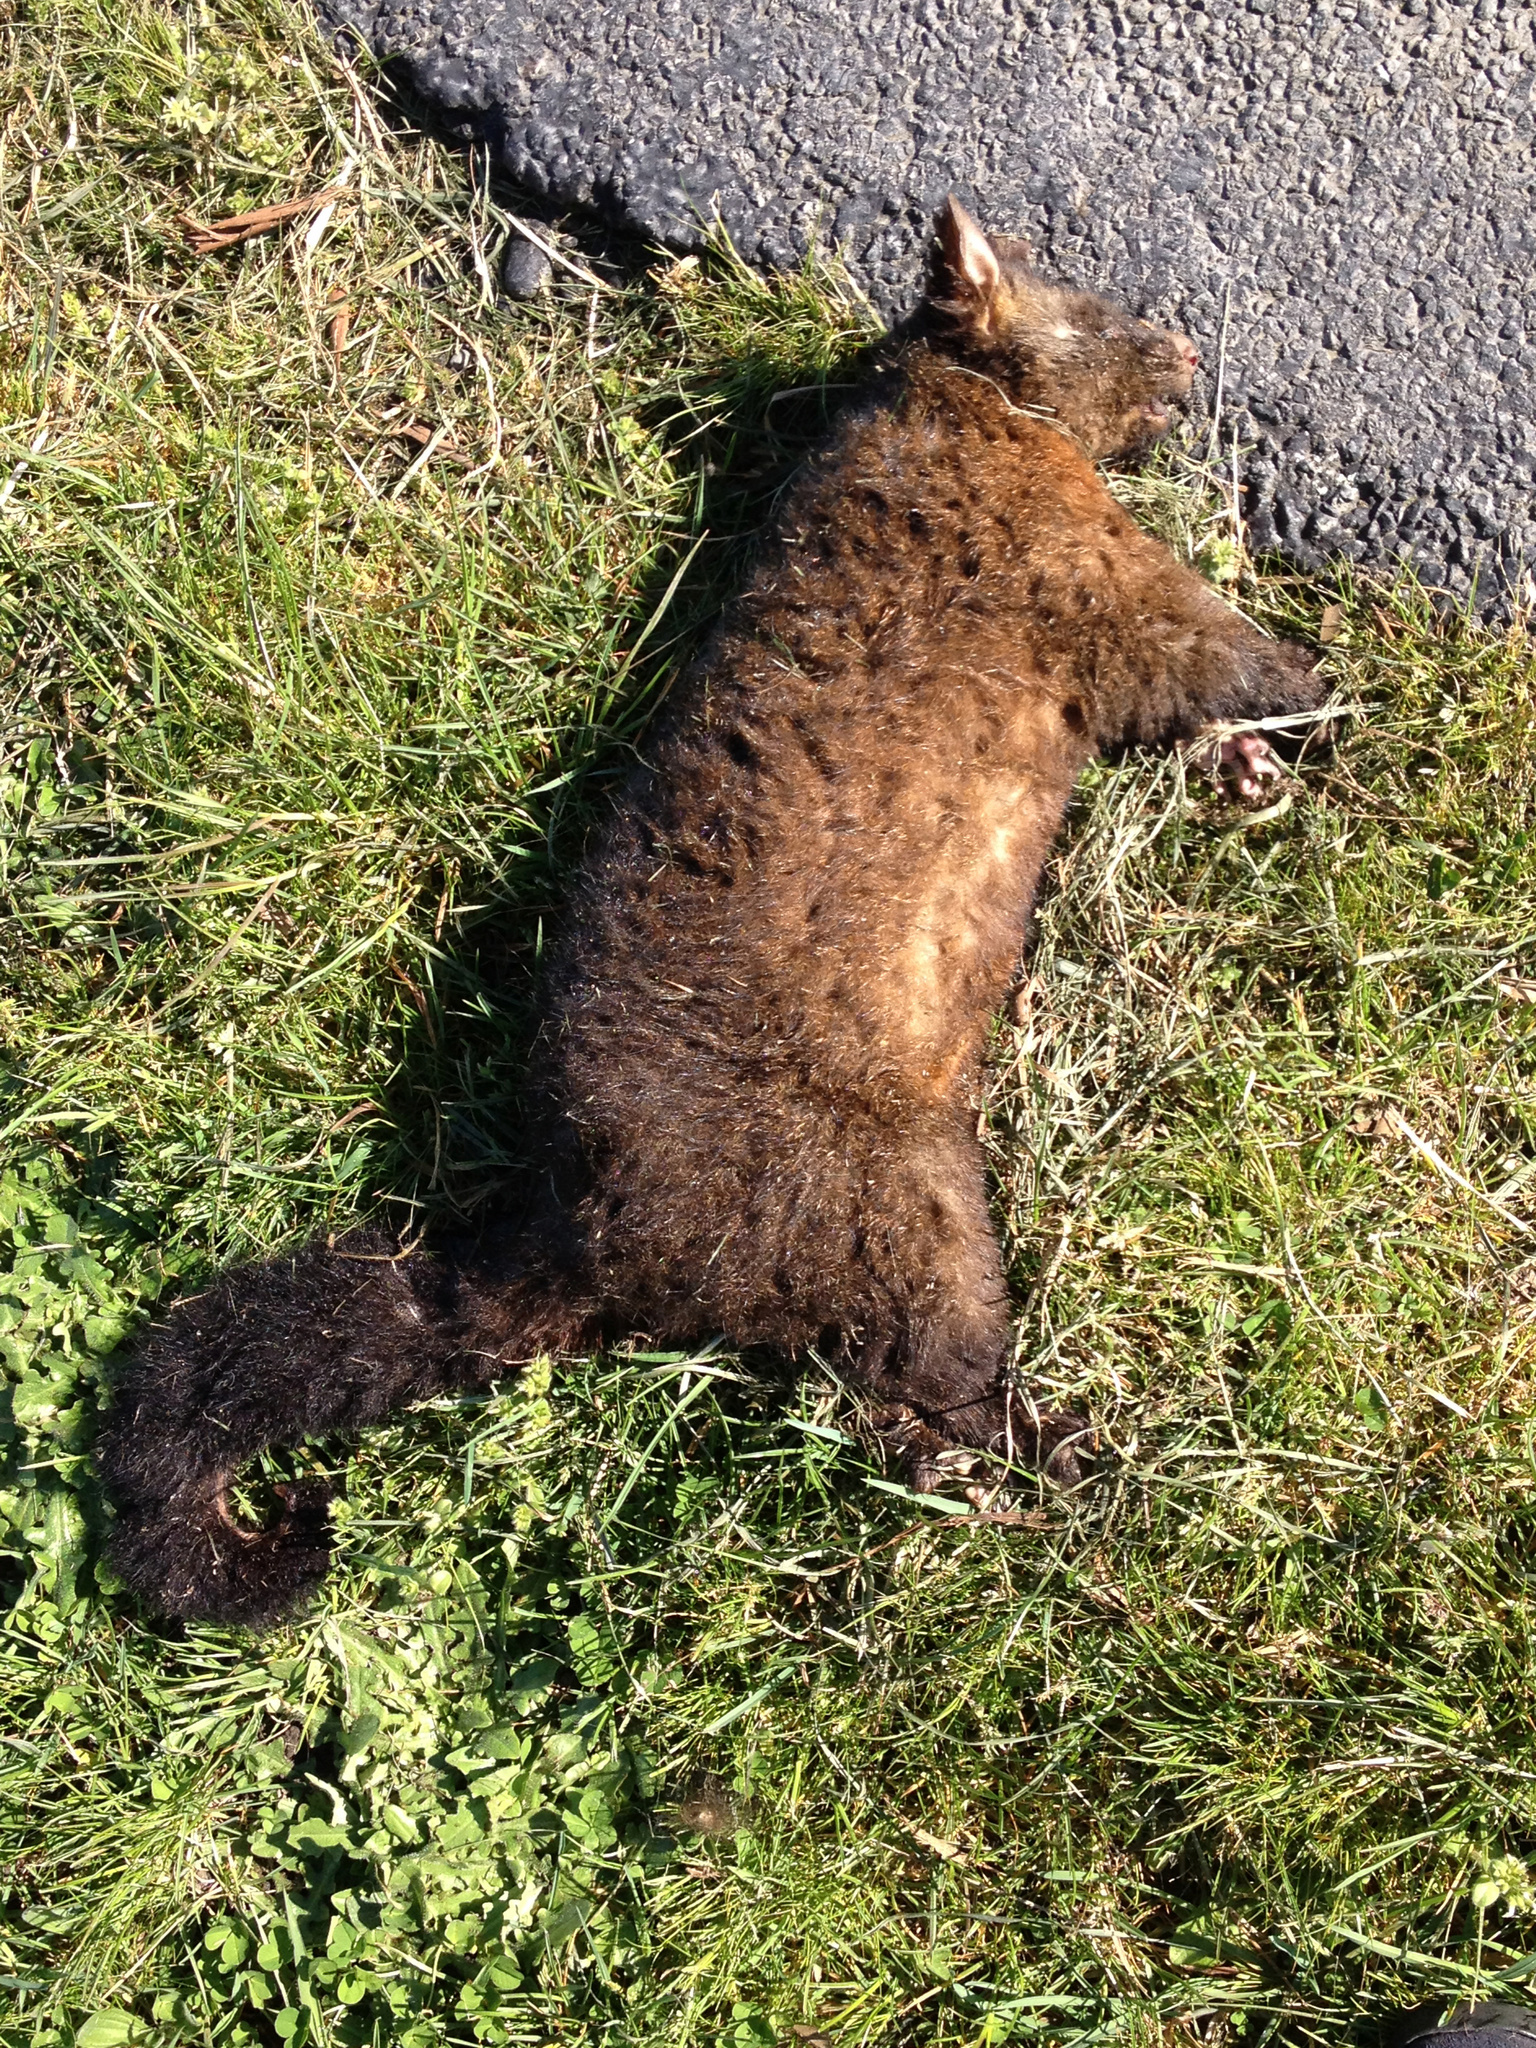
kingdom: Animalia
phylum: Chordata
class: Mammalia
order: Diprotodontia
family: Phalangeridae
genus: Trichosurus
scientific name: Trichosurus vulpecula
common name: Common brushtail
